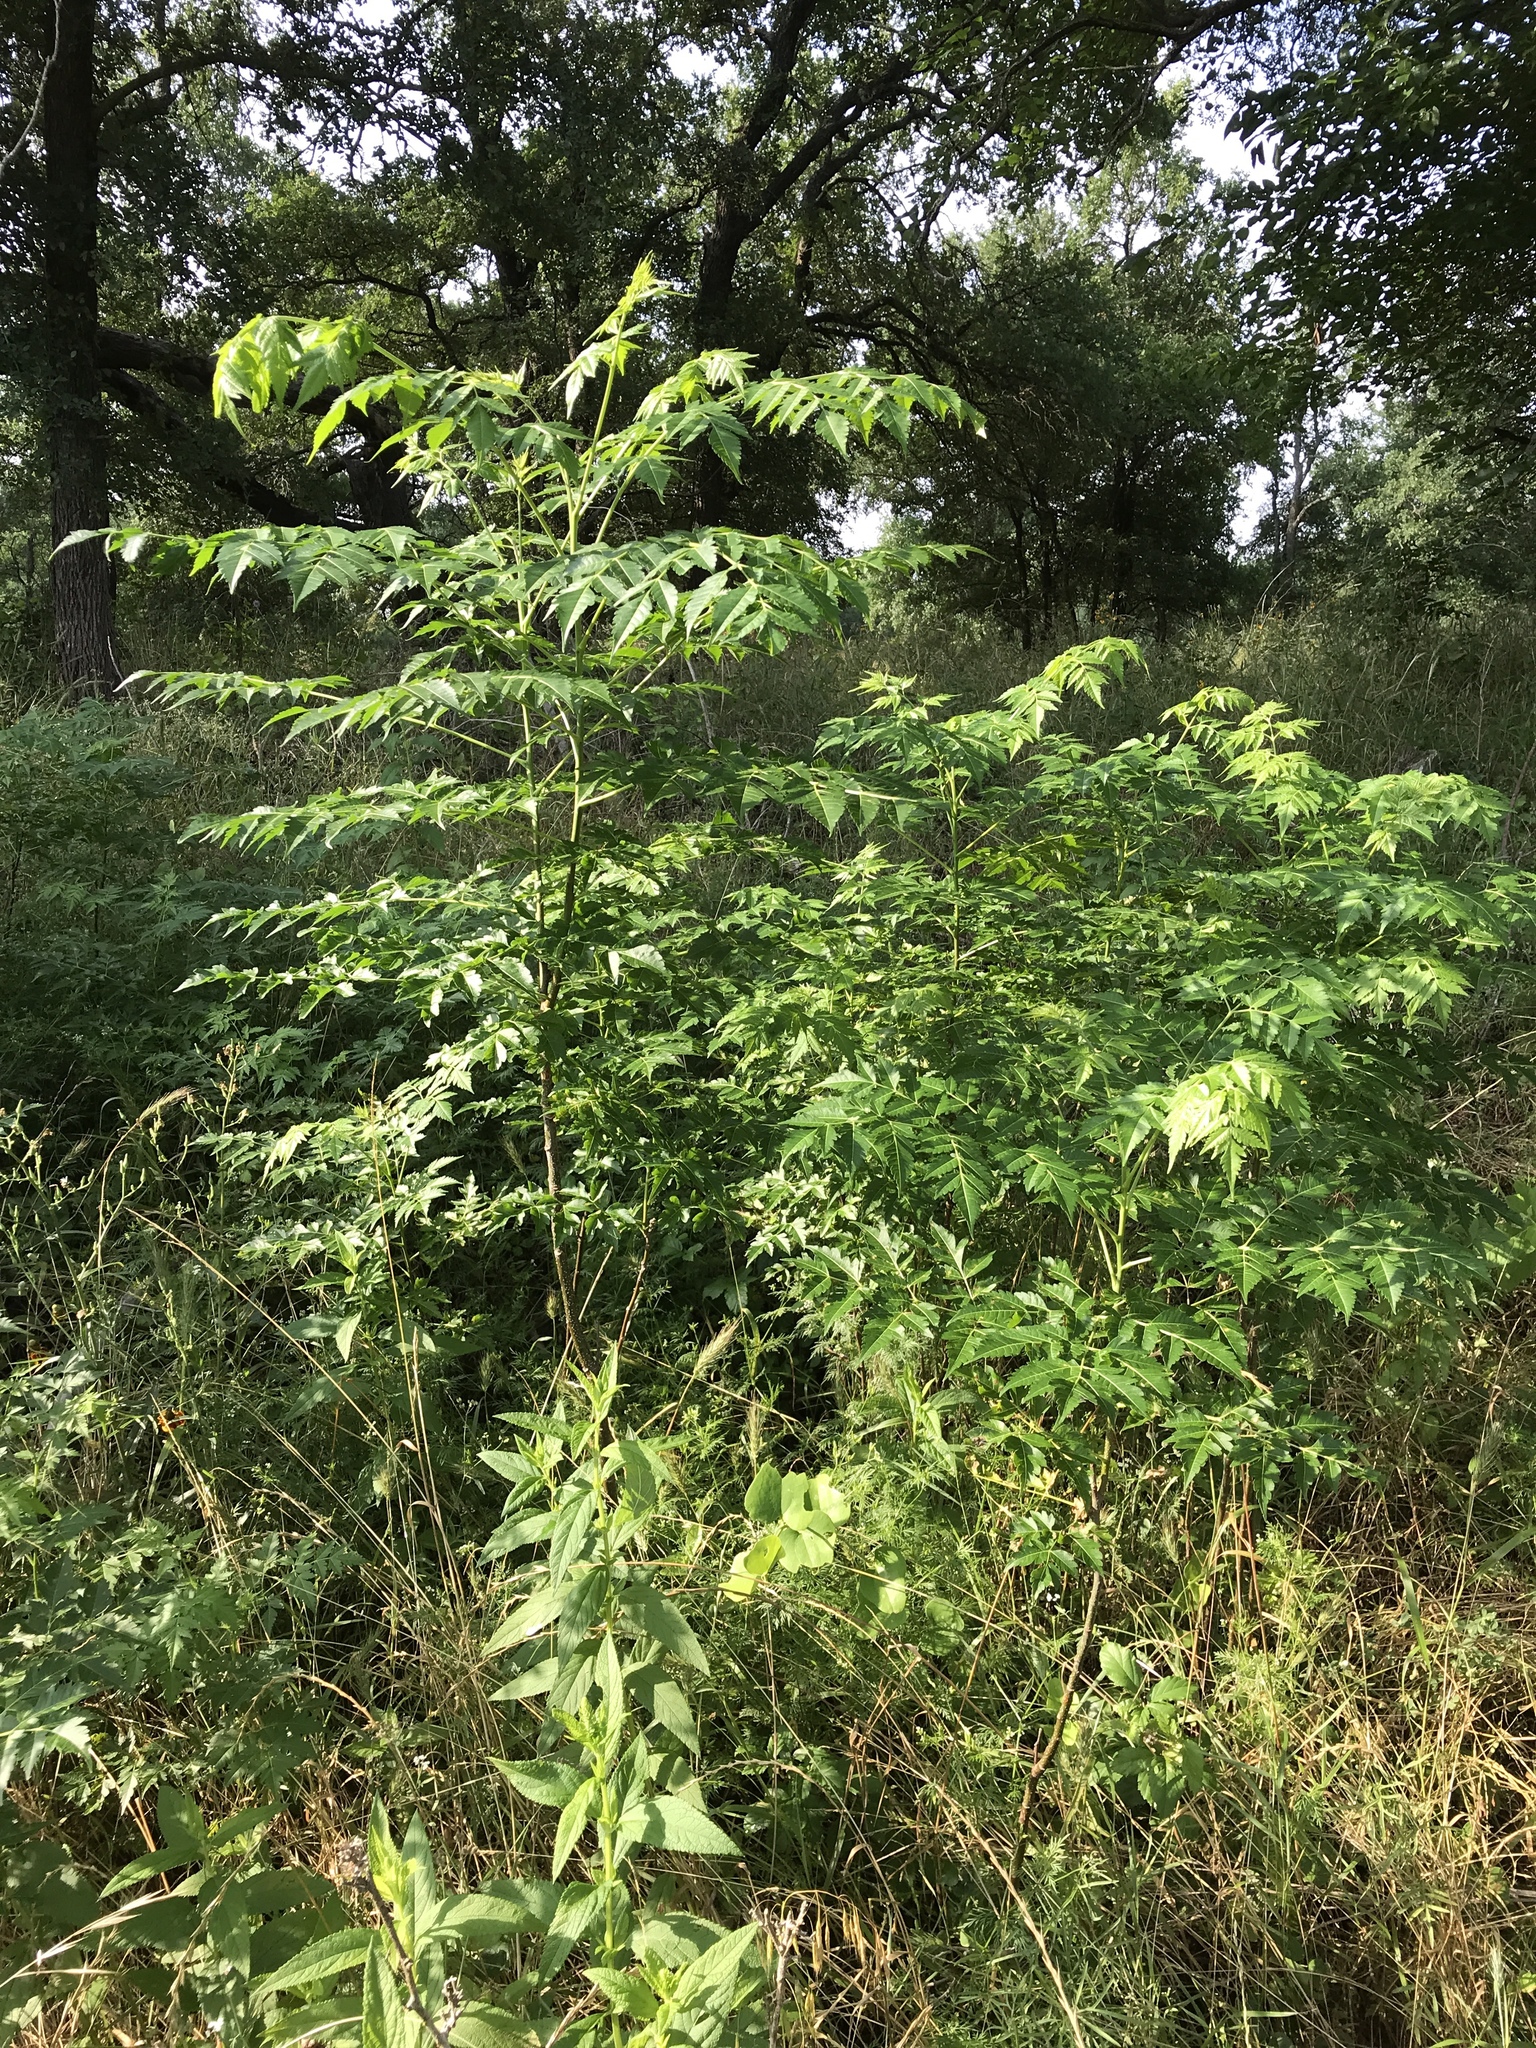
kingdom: Plantae
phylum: Tracheophyta
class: Magnoliopsida
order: Sapindales
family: Meliaceae
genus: Melia
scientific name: Melia azedarach
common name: Chinaberrytree
